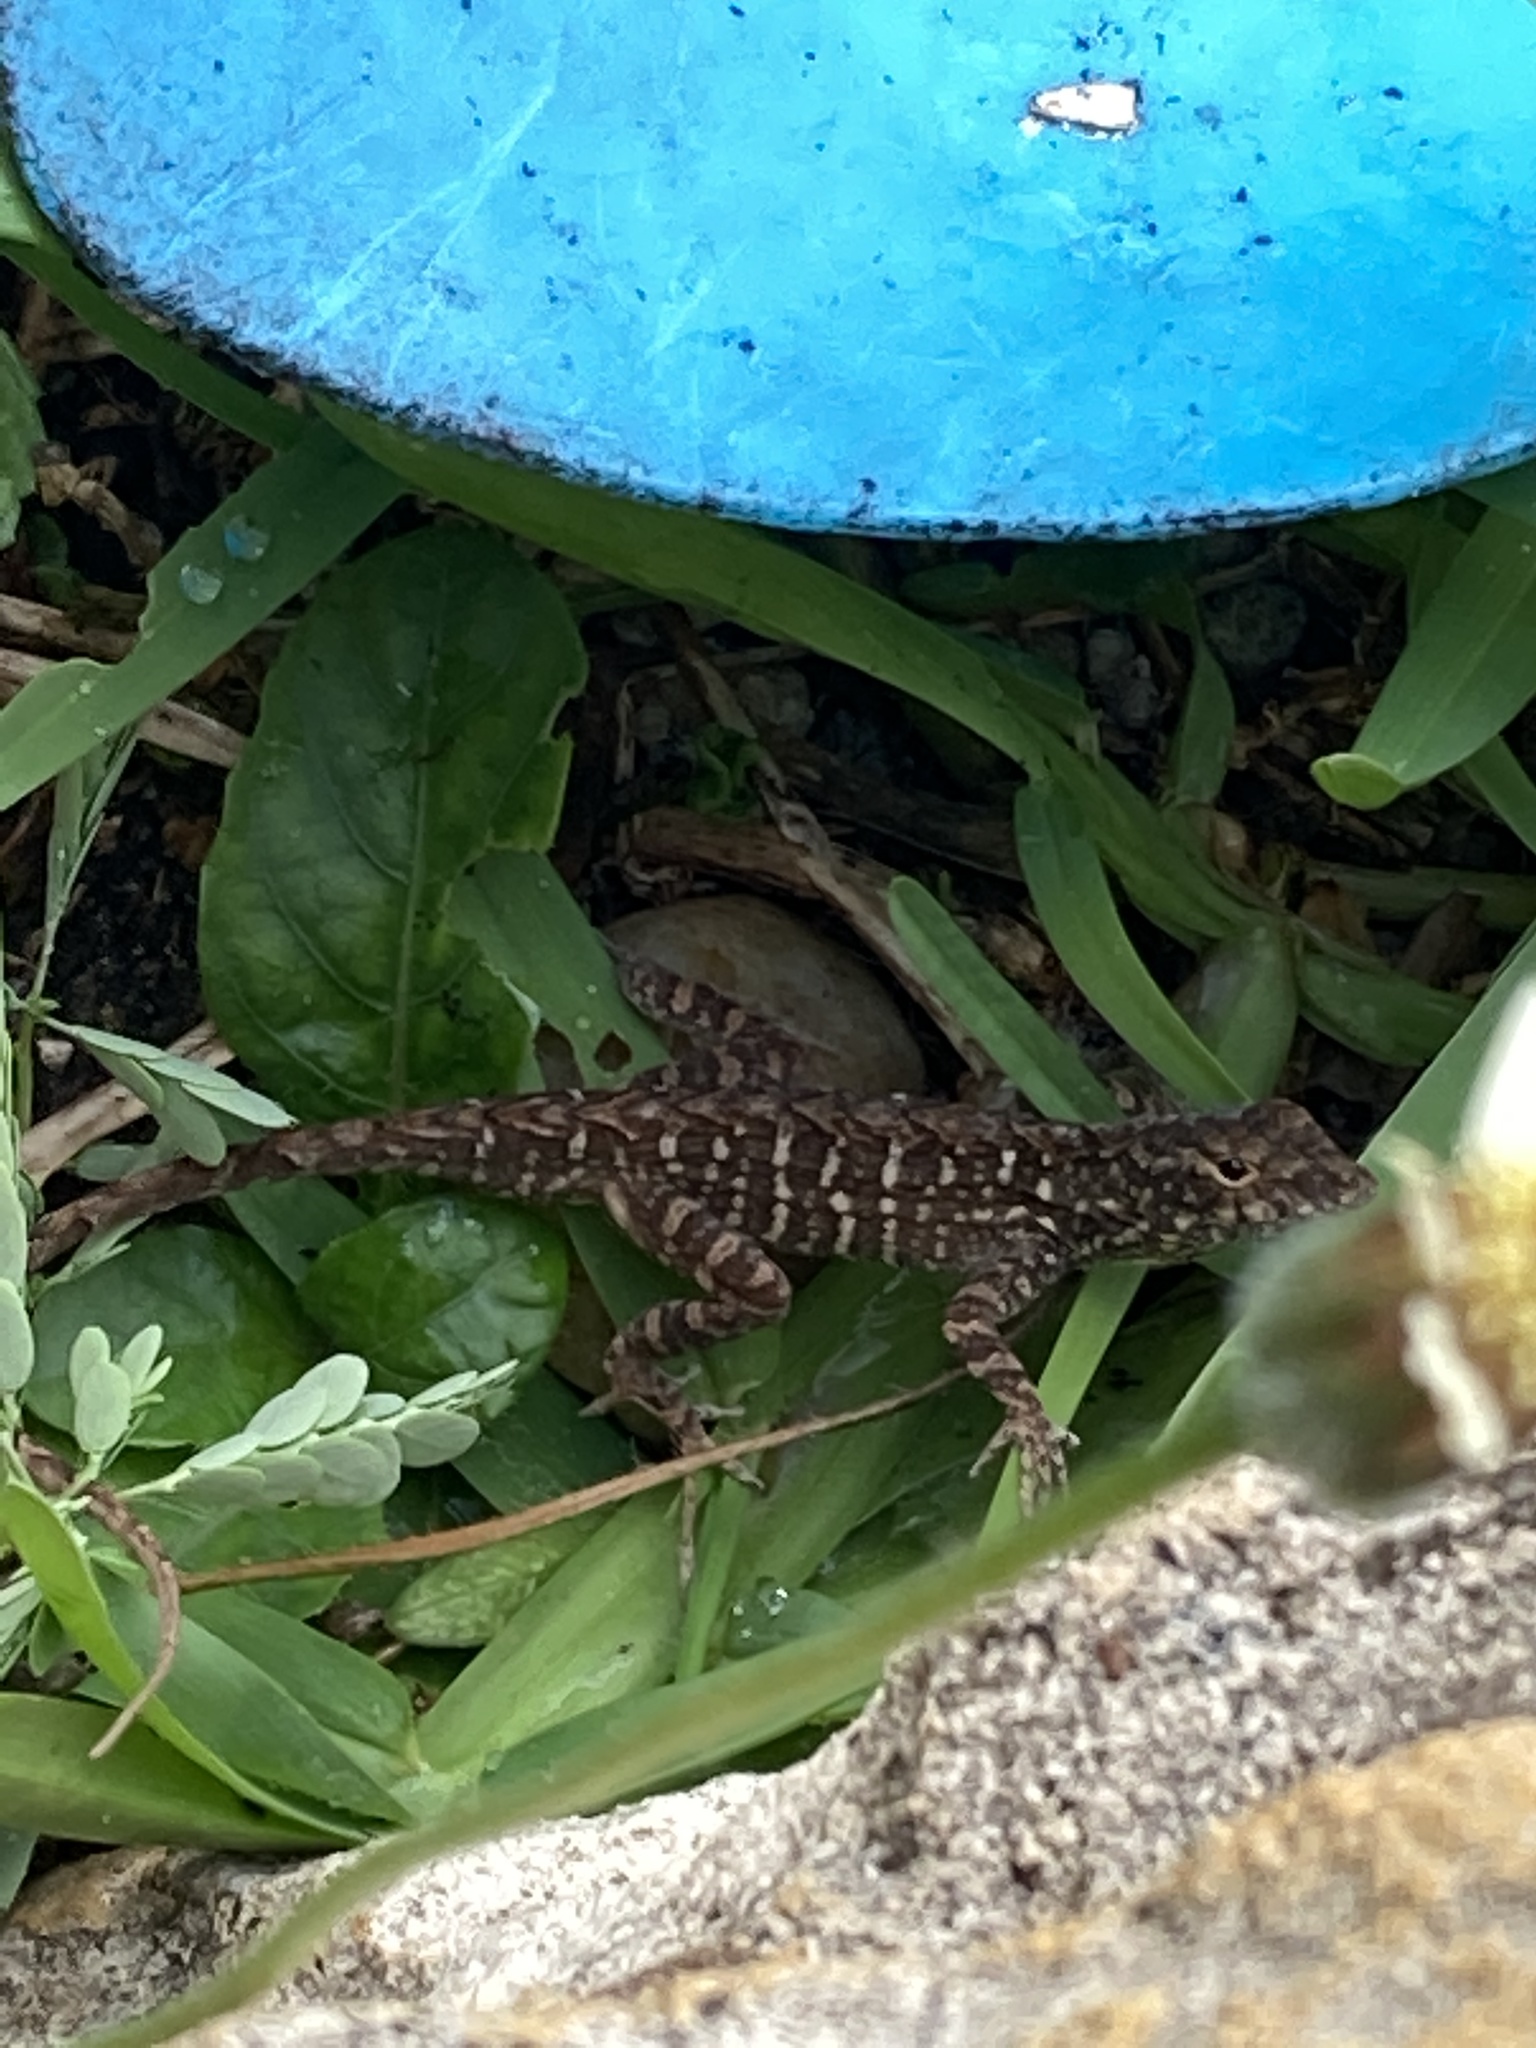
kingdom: Animalia
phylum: Chordata
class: Squamata
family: Dactyloidae
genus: Anolis
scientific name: Anolis sagrei
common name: Brown anole
